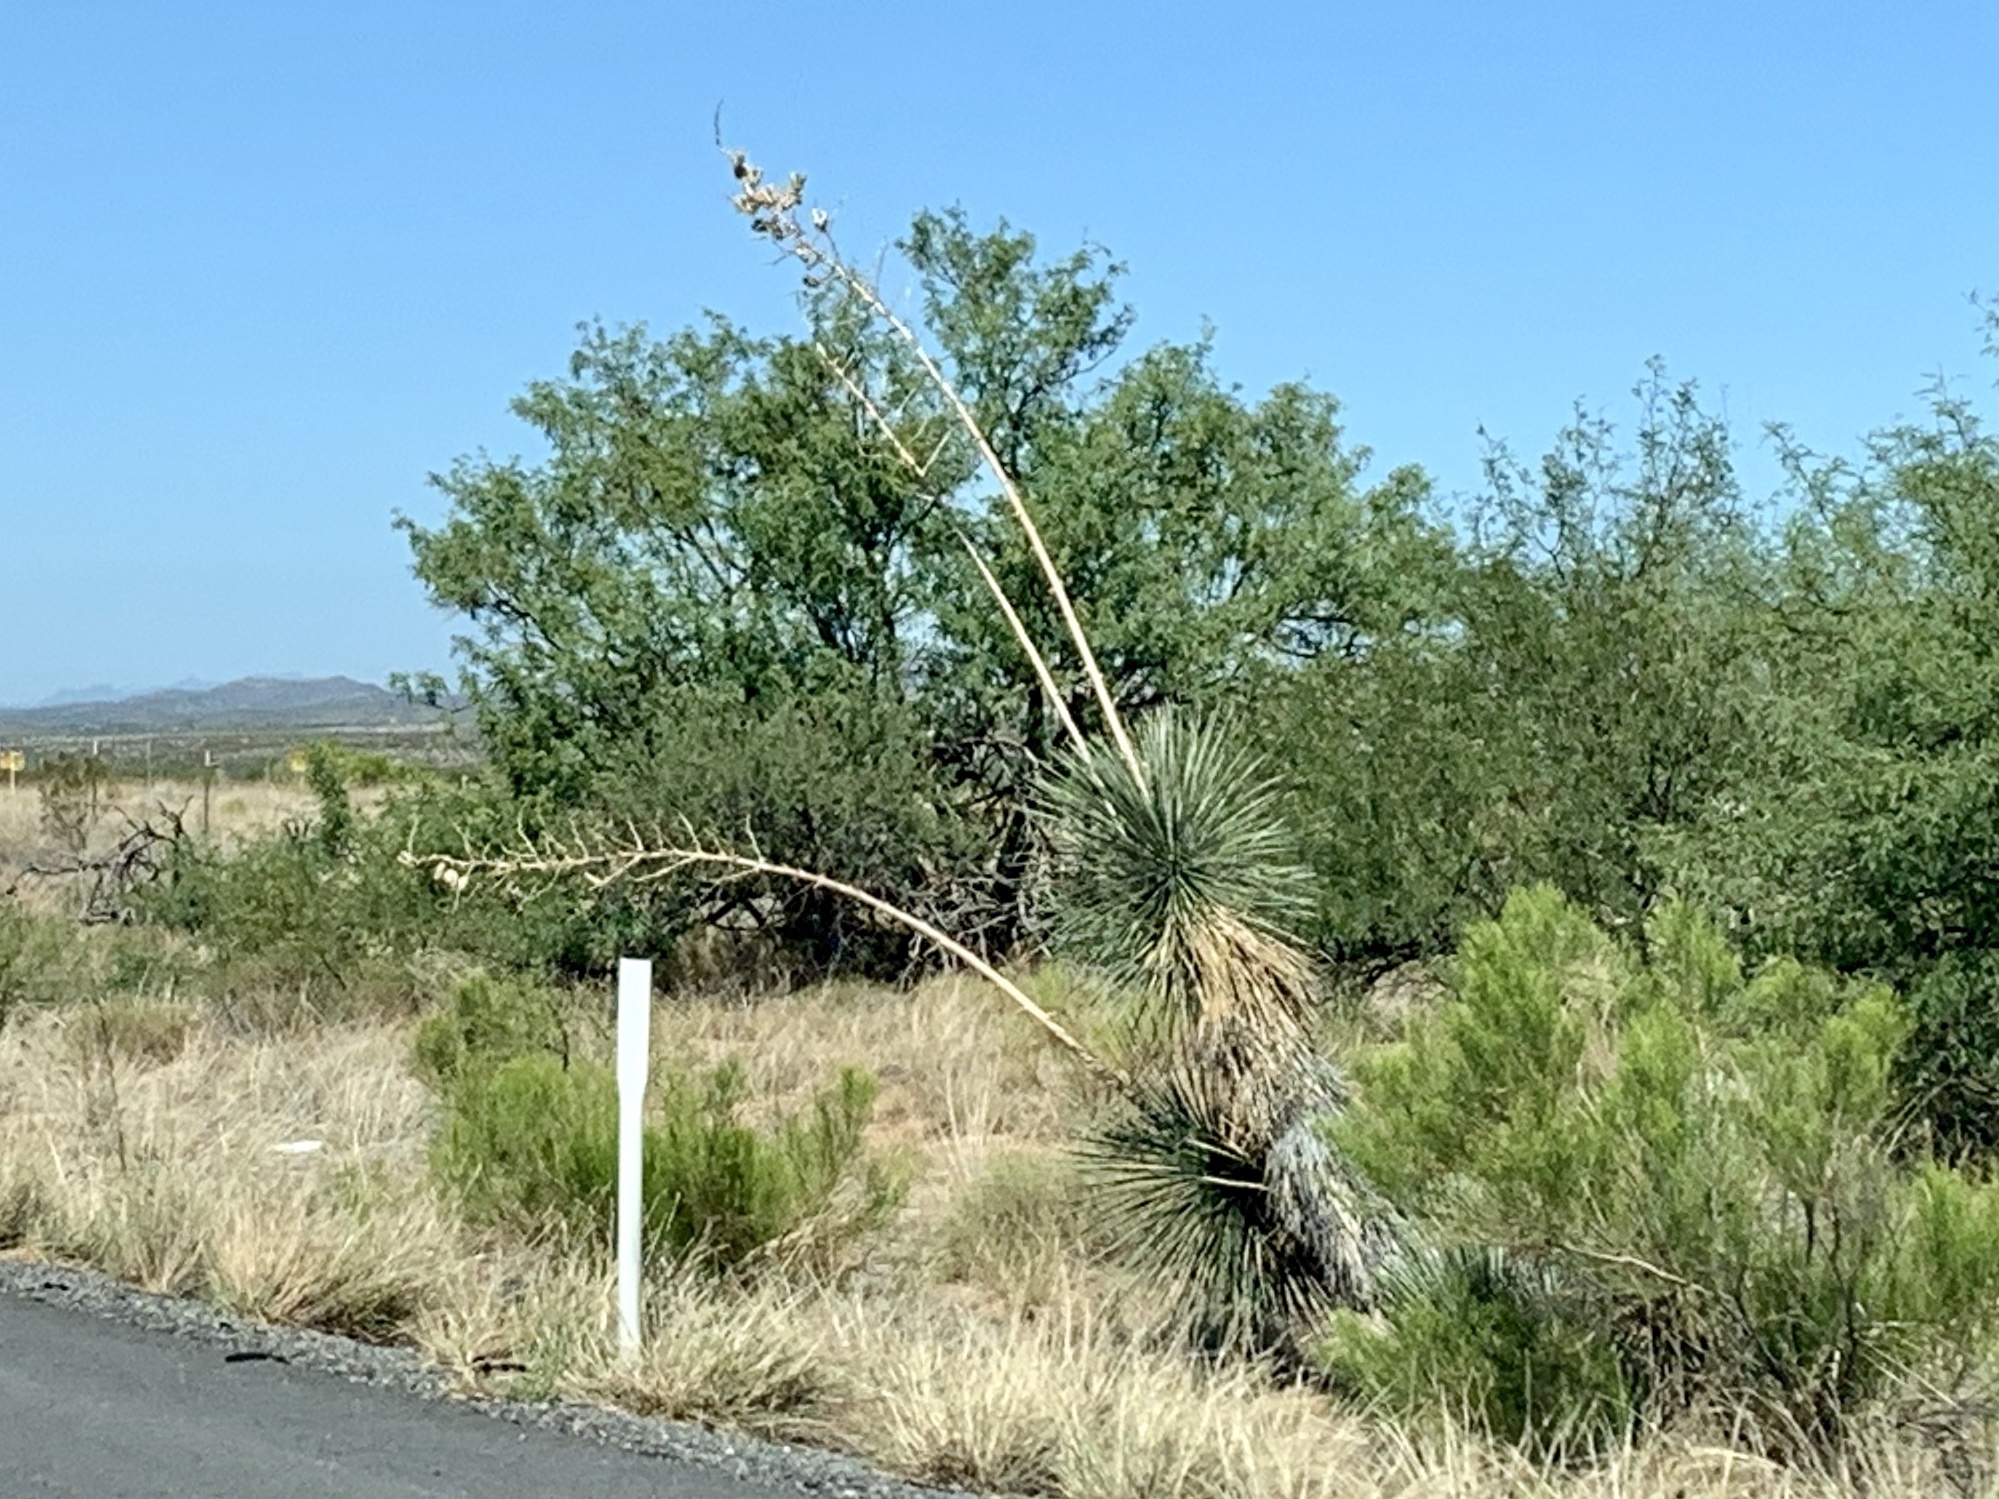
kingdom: Plantae
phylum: Tracheophyta
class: Liliopsida
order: Asparagales
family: Asparagaceae
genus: Yucca
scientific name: Yucca elata
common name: Palmella
